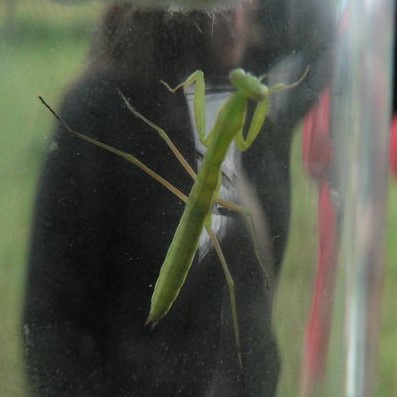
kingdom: Animalia
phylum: Arthropoda
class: Insecta
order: Mantodea
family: Mantidae
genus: Mantis
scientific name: Mantis religiosa
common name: Praying mantis
